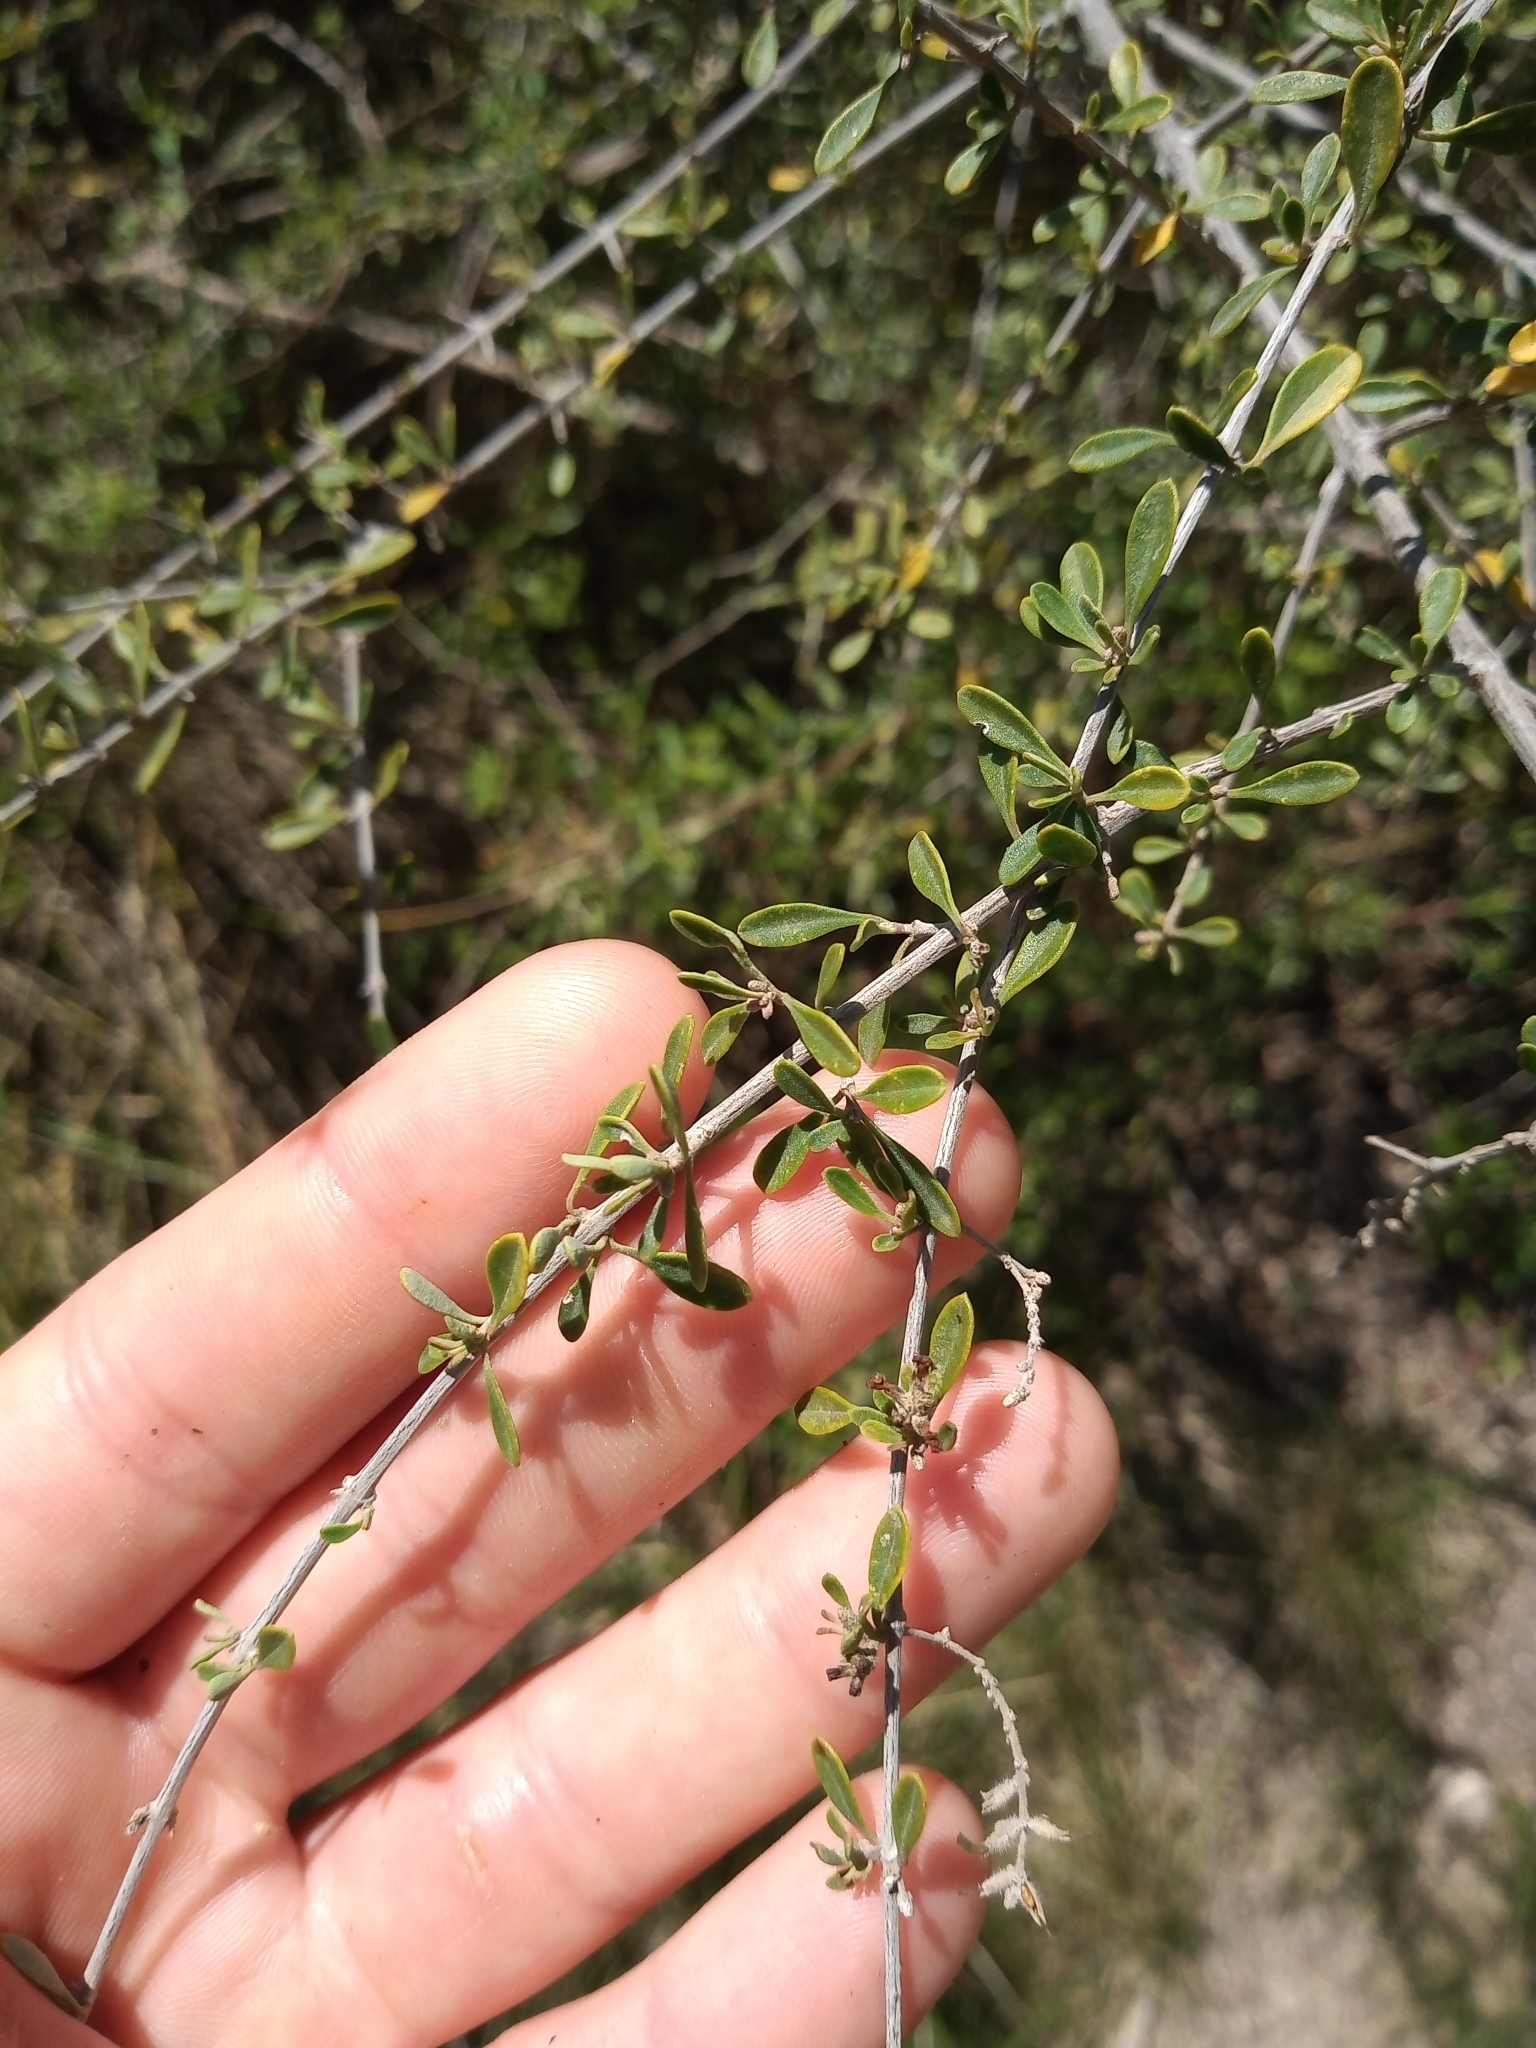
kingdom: Plantae
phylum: Tracheophyta
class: Magnoliopsida
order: Lamiales
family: Verbenaceae
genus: Aloysia
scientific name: Aloysia gratissima
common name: Common bee-brush
